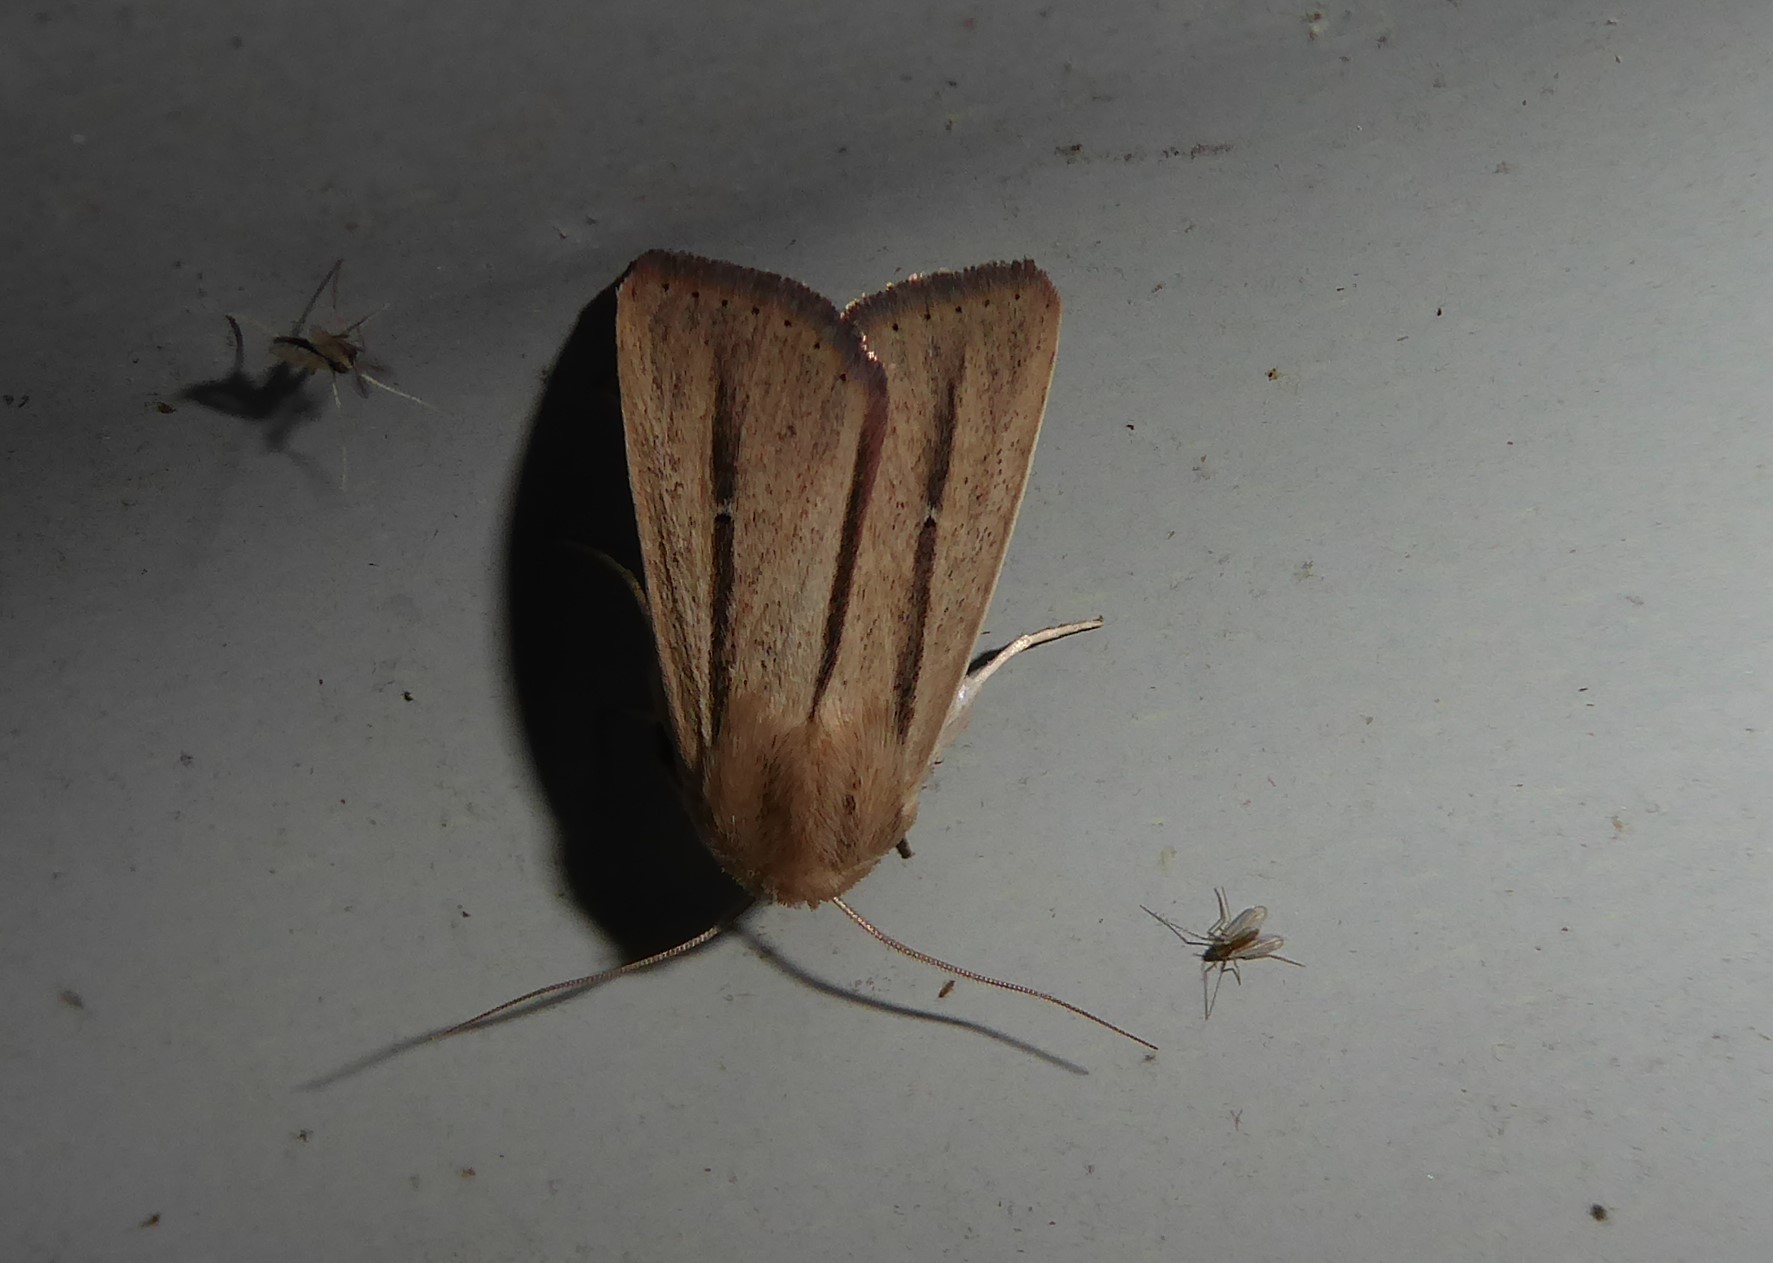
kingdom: Animalia
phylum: Arthropoda
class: Insecta
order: Lepidoptera
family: Noctuidae
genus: Leucania
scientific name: Leucania diatrecta
